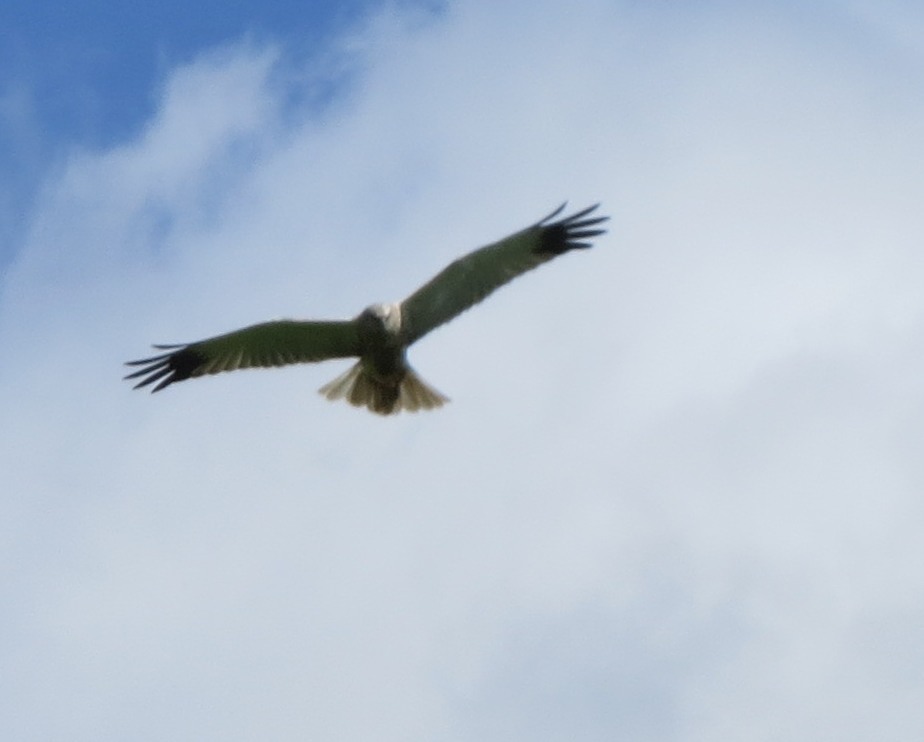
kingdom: Animalia
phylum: Chordata
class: Aves
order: Accipitriformes
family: Accipitridae
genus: Circus
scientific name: Circus aeruginosus
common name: Western marsh harrier
